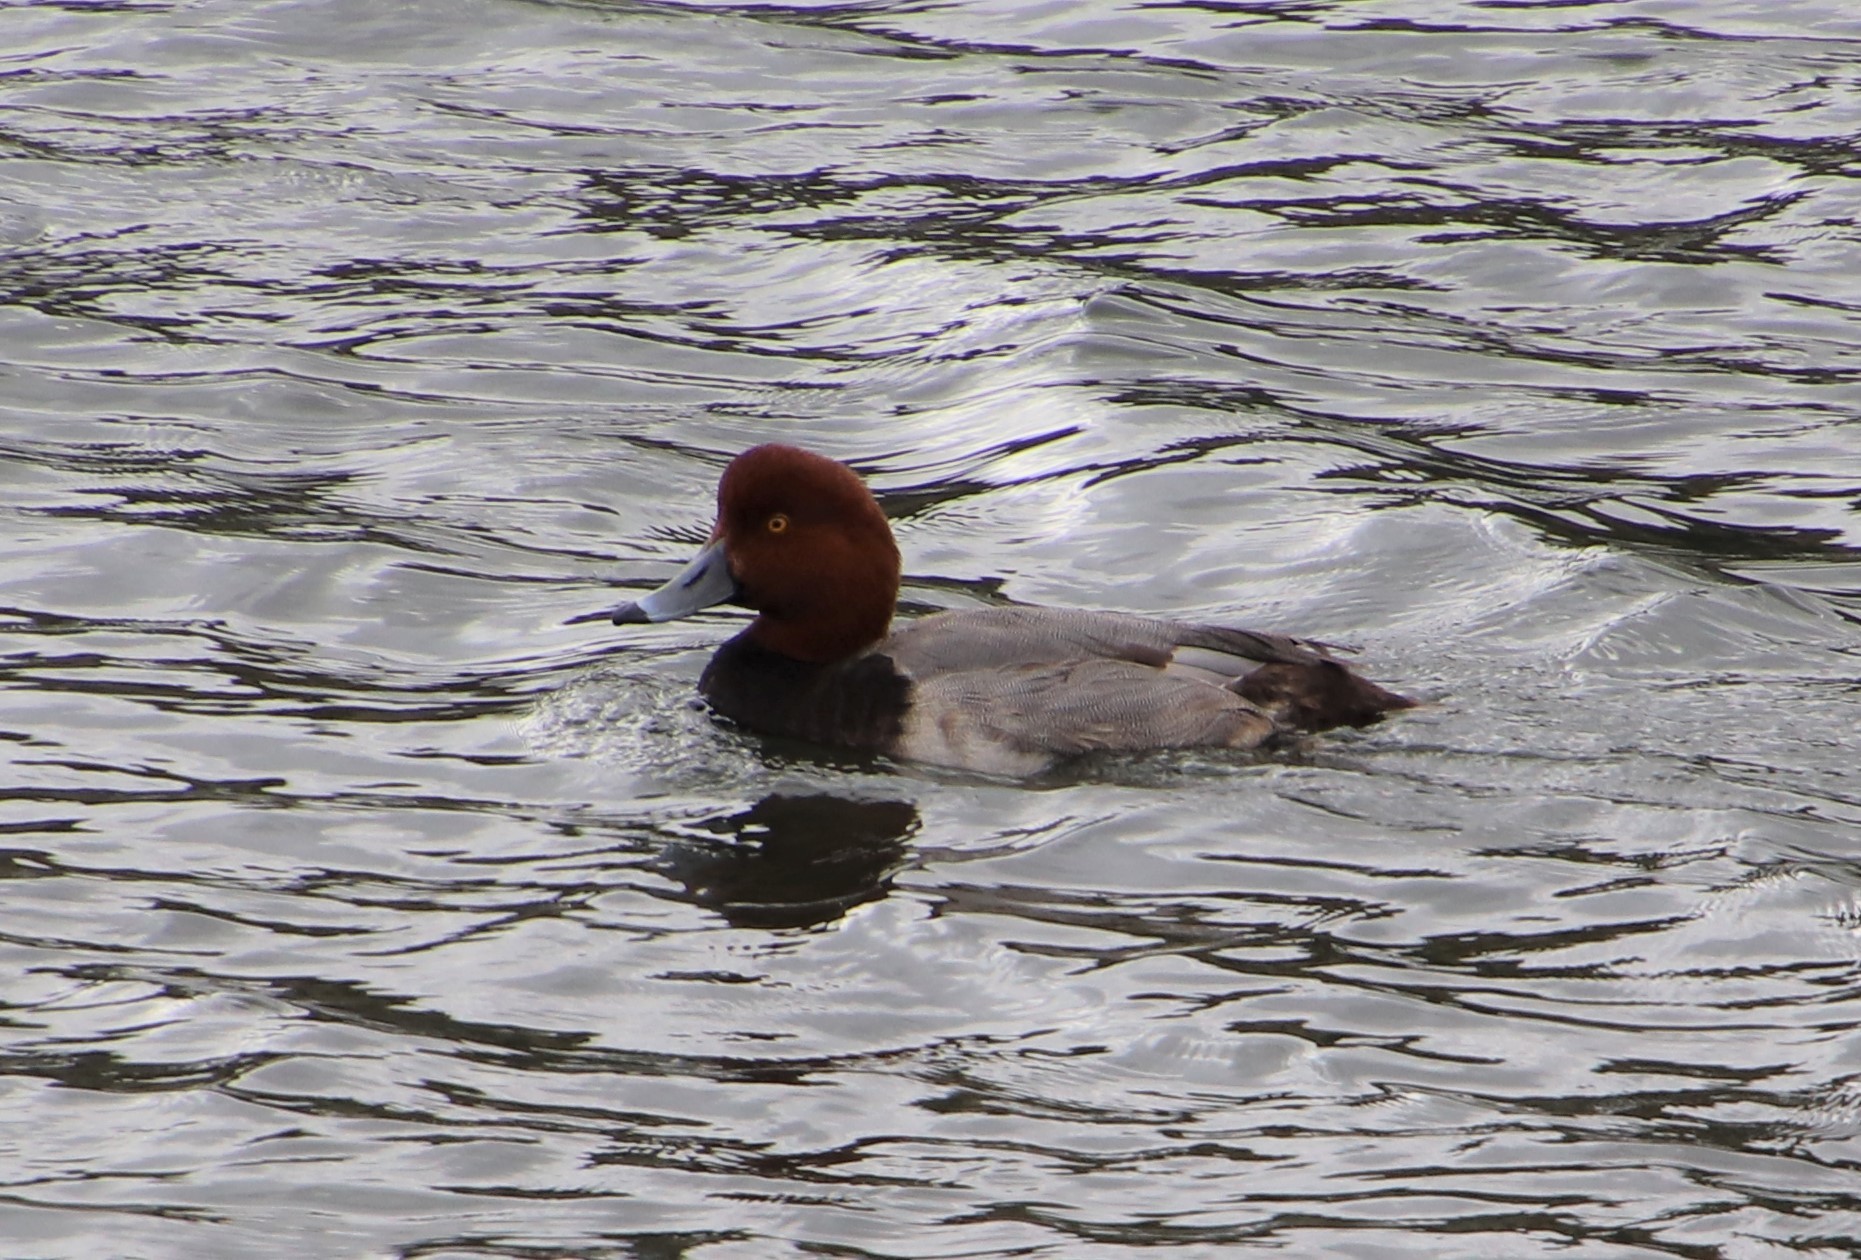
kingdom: Animalia
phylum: Chordata
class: Aves
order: Anseriformes
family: Anatidae
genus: Aythya
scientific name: Aythya americana
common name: Redhead
